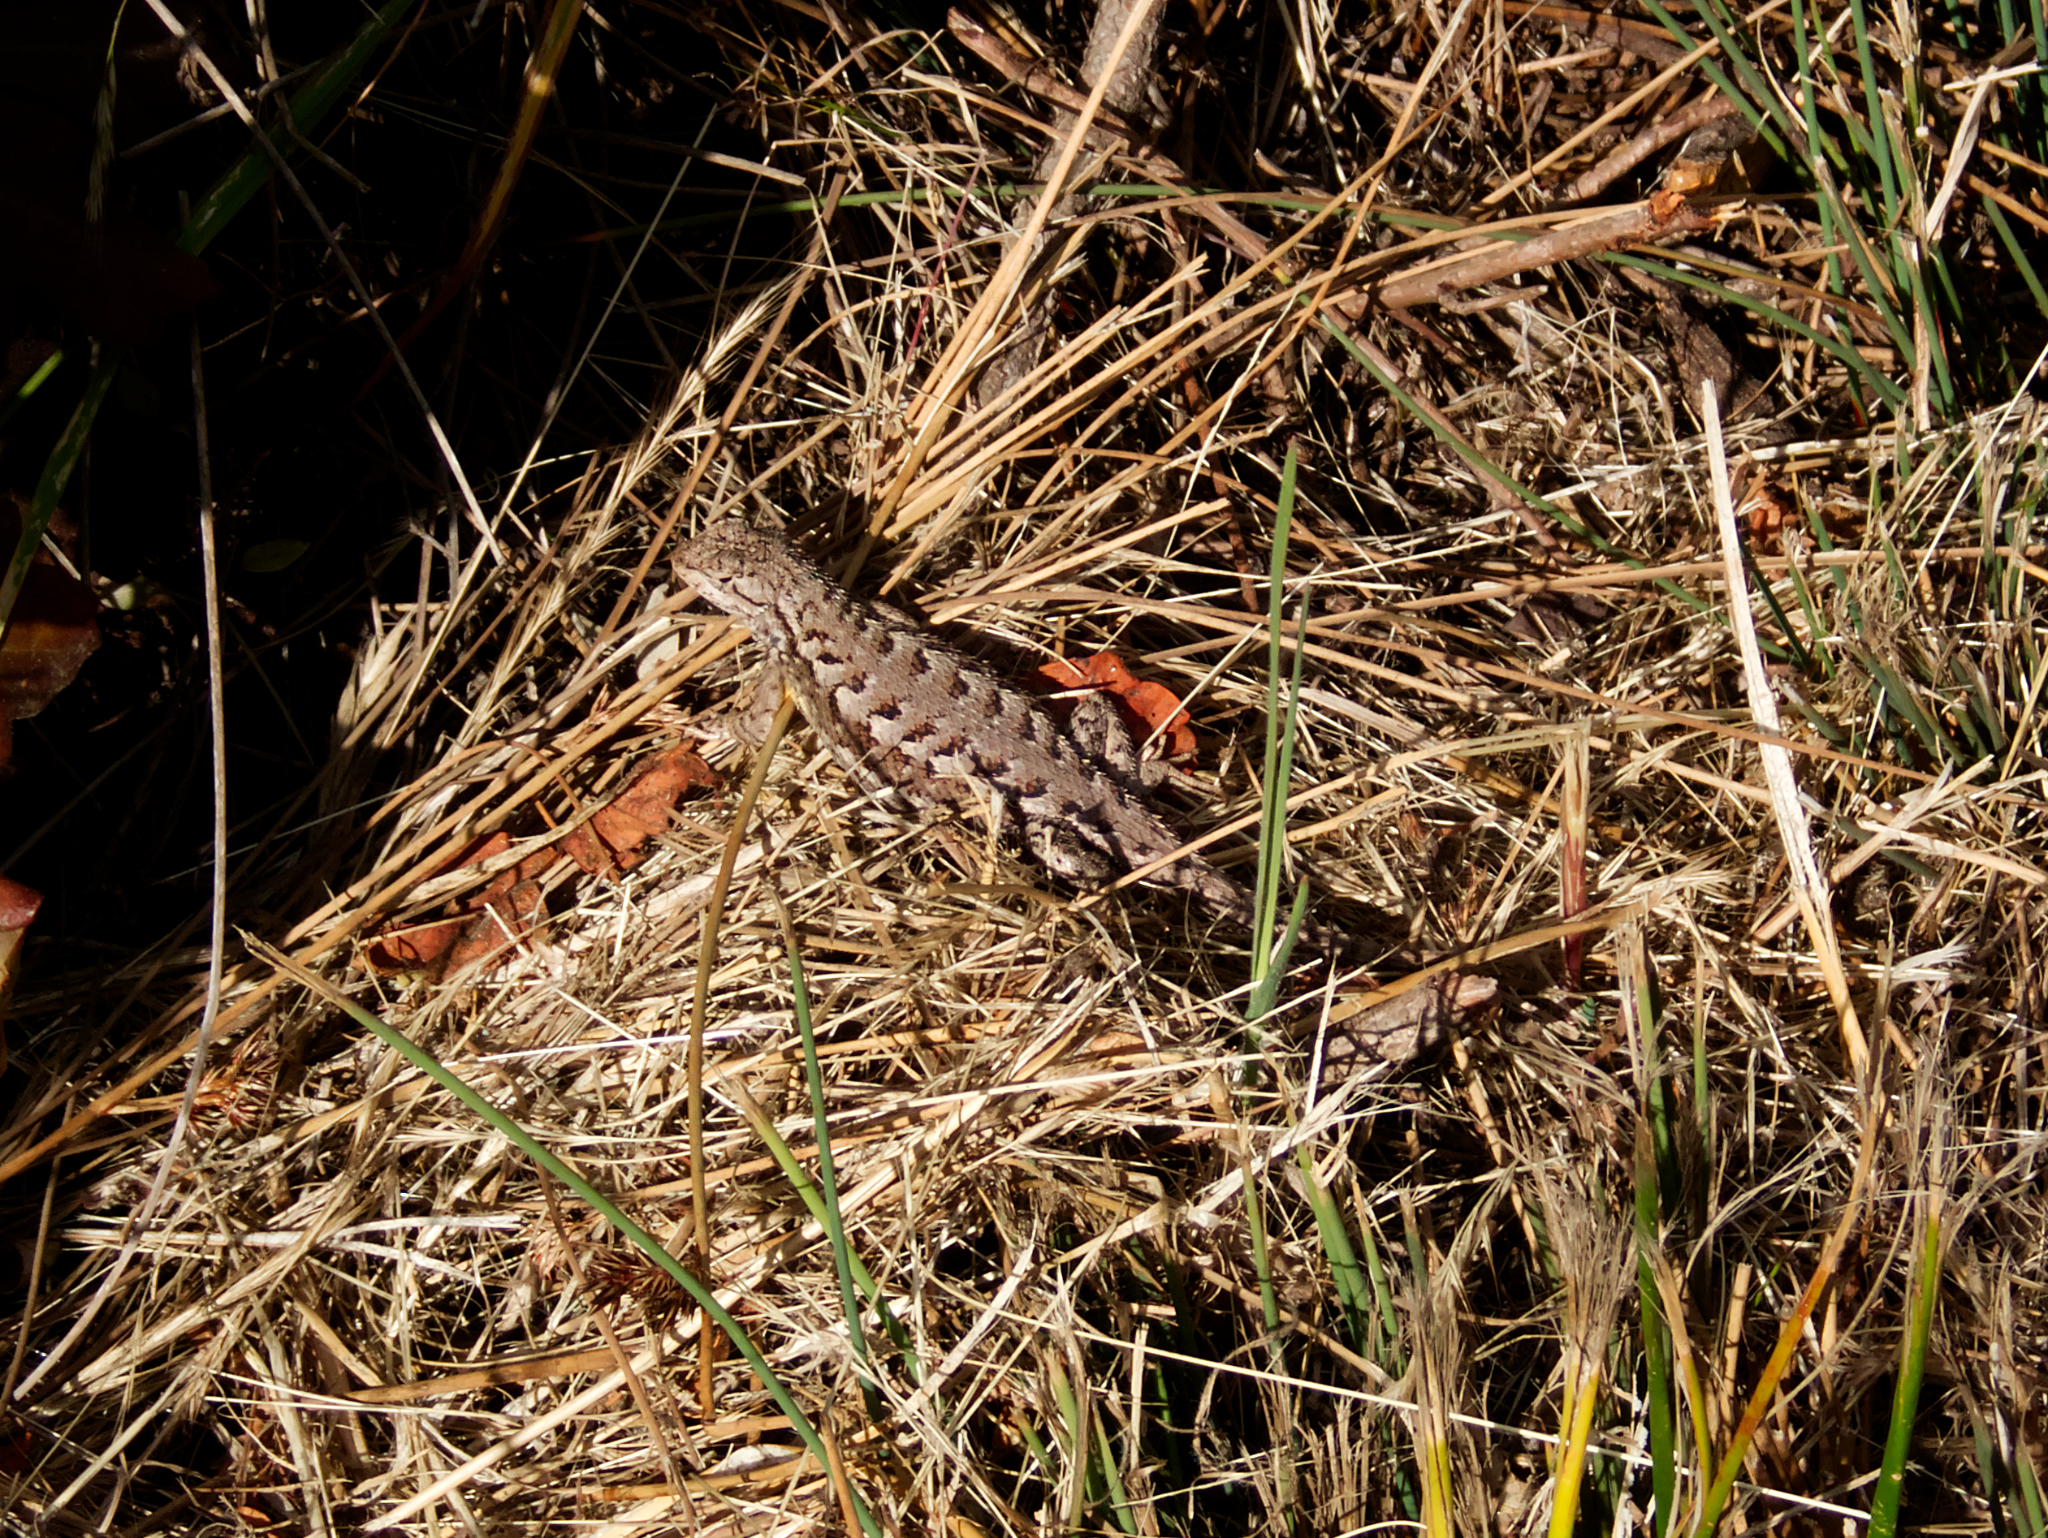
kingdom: Animalia
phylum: Chordata
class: Squamata
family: Phrynosomatidae
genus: Sceloporus
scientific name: Sceloporus occidentalis
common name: Western fence lizard
